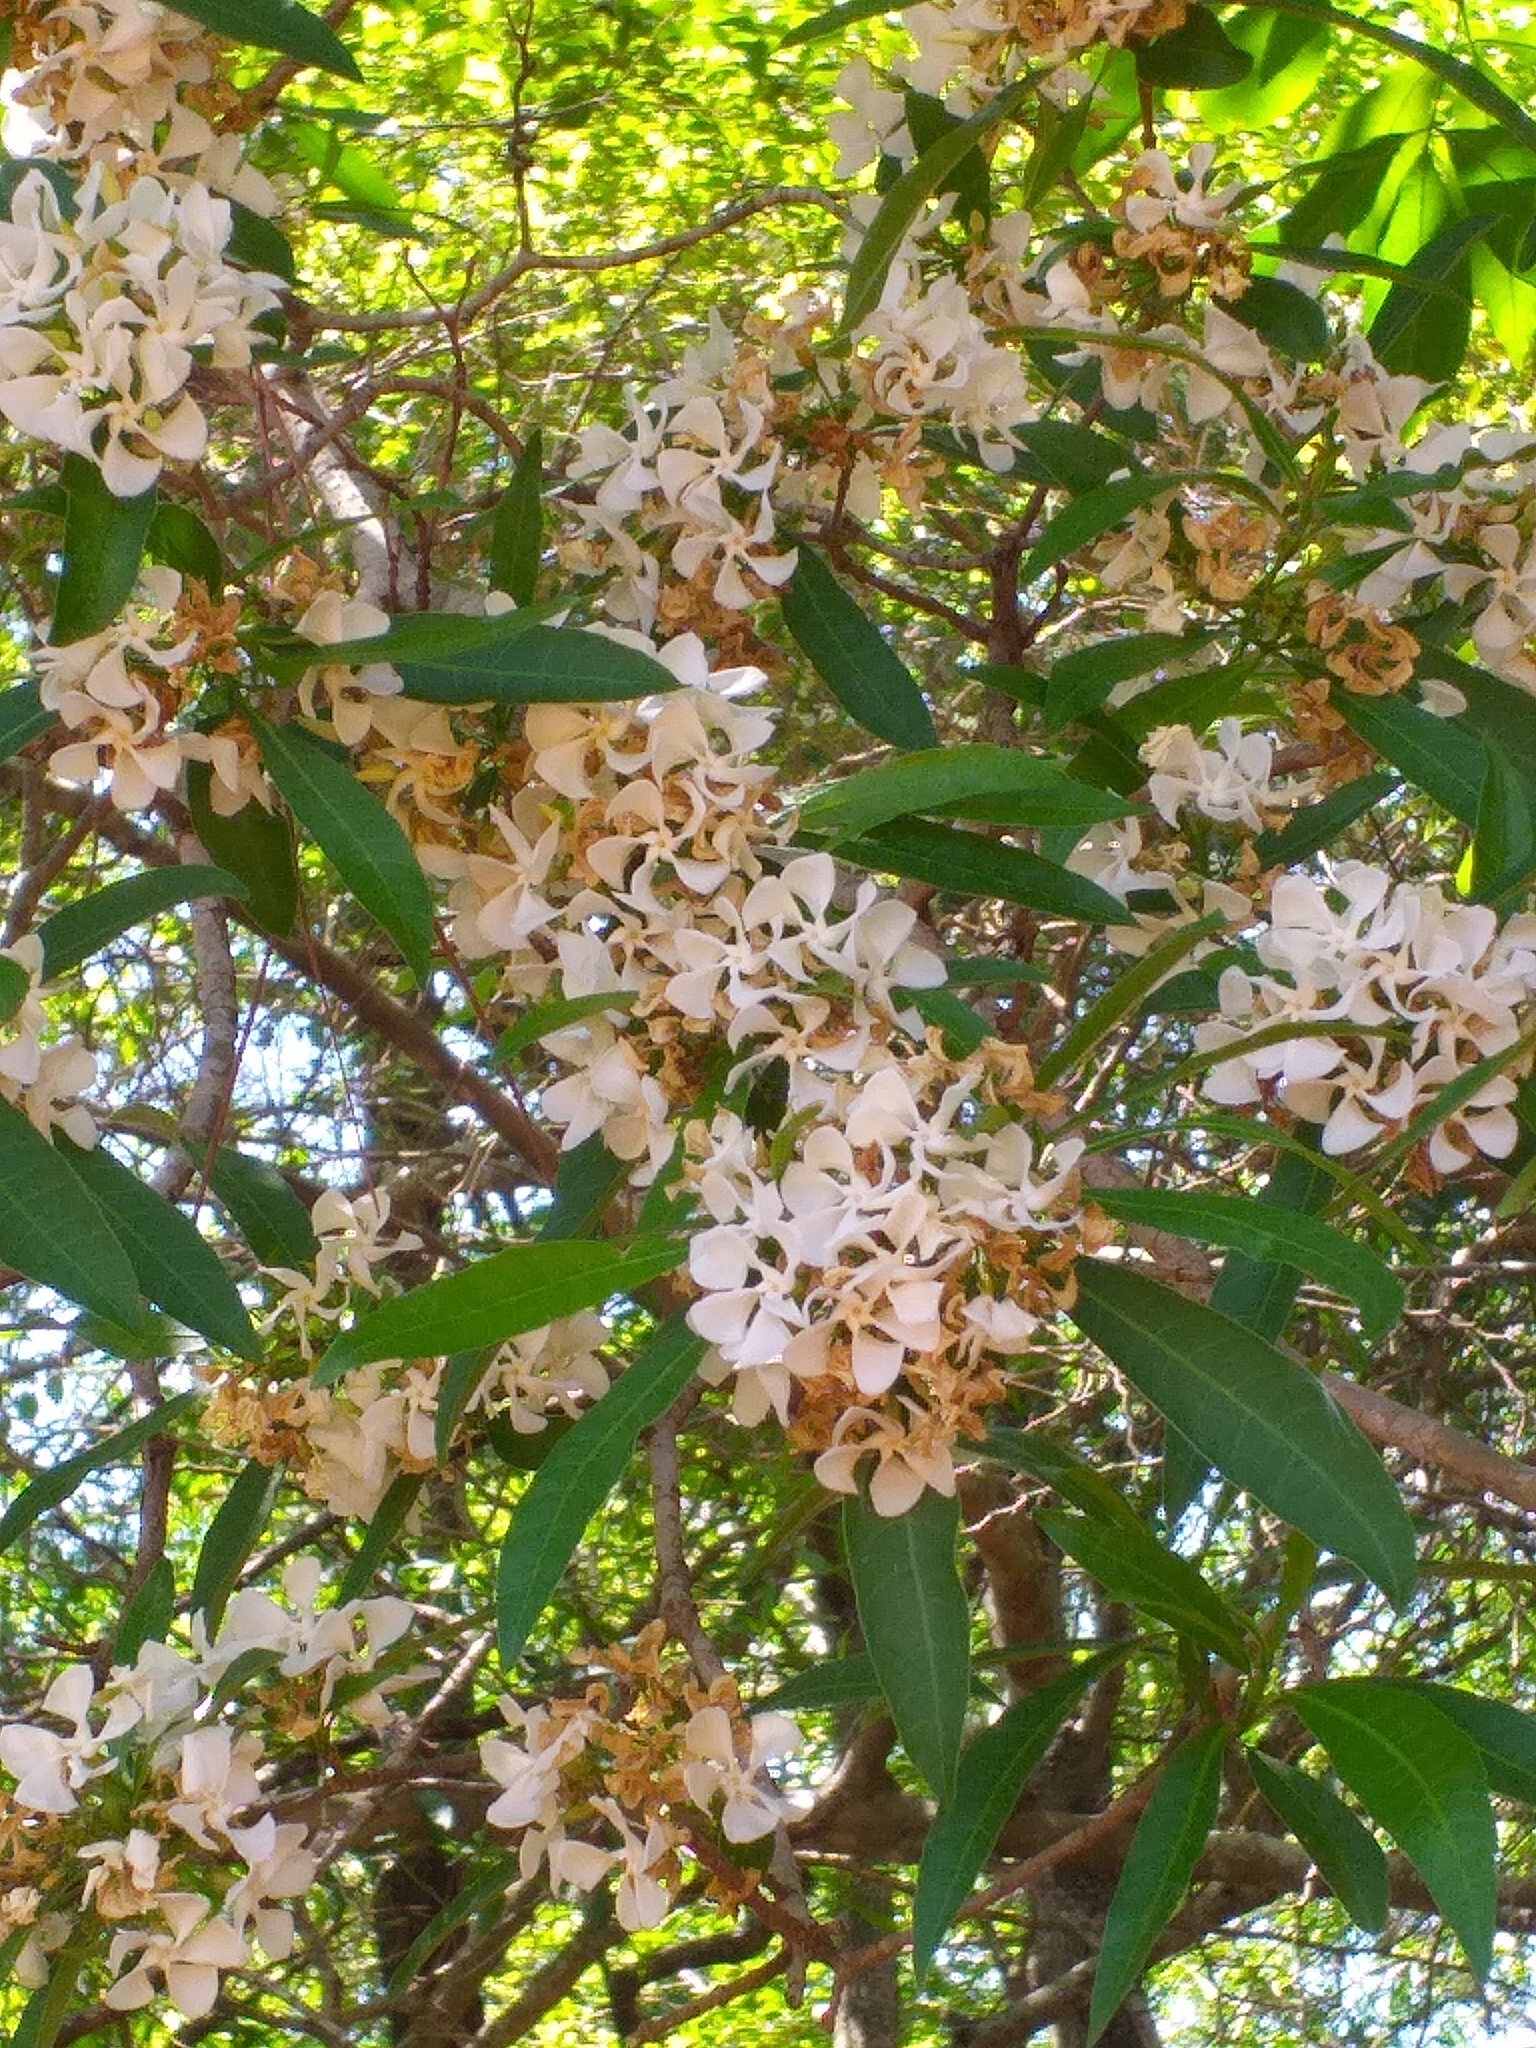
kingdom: Plantae
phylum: Tracheophyta
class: Magnoliopsida
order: Gentianales
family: Apocynaceae
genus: Tabernaemontana
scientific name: Tabernaemontana catharinensis
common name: Pinwheel-flower
